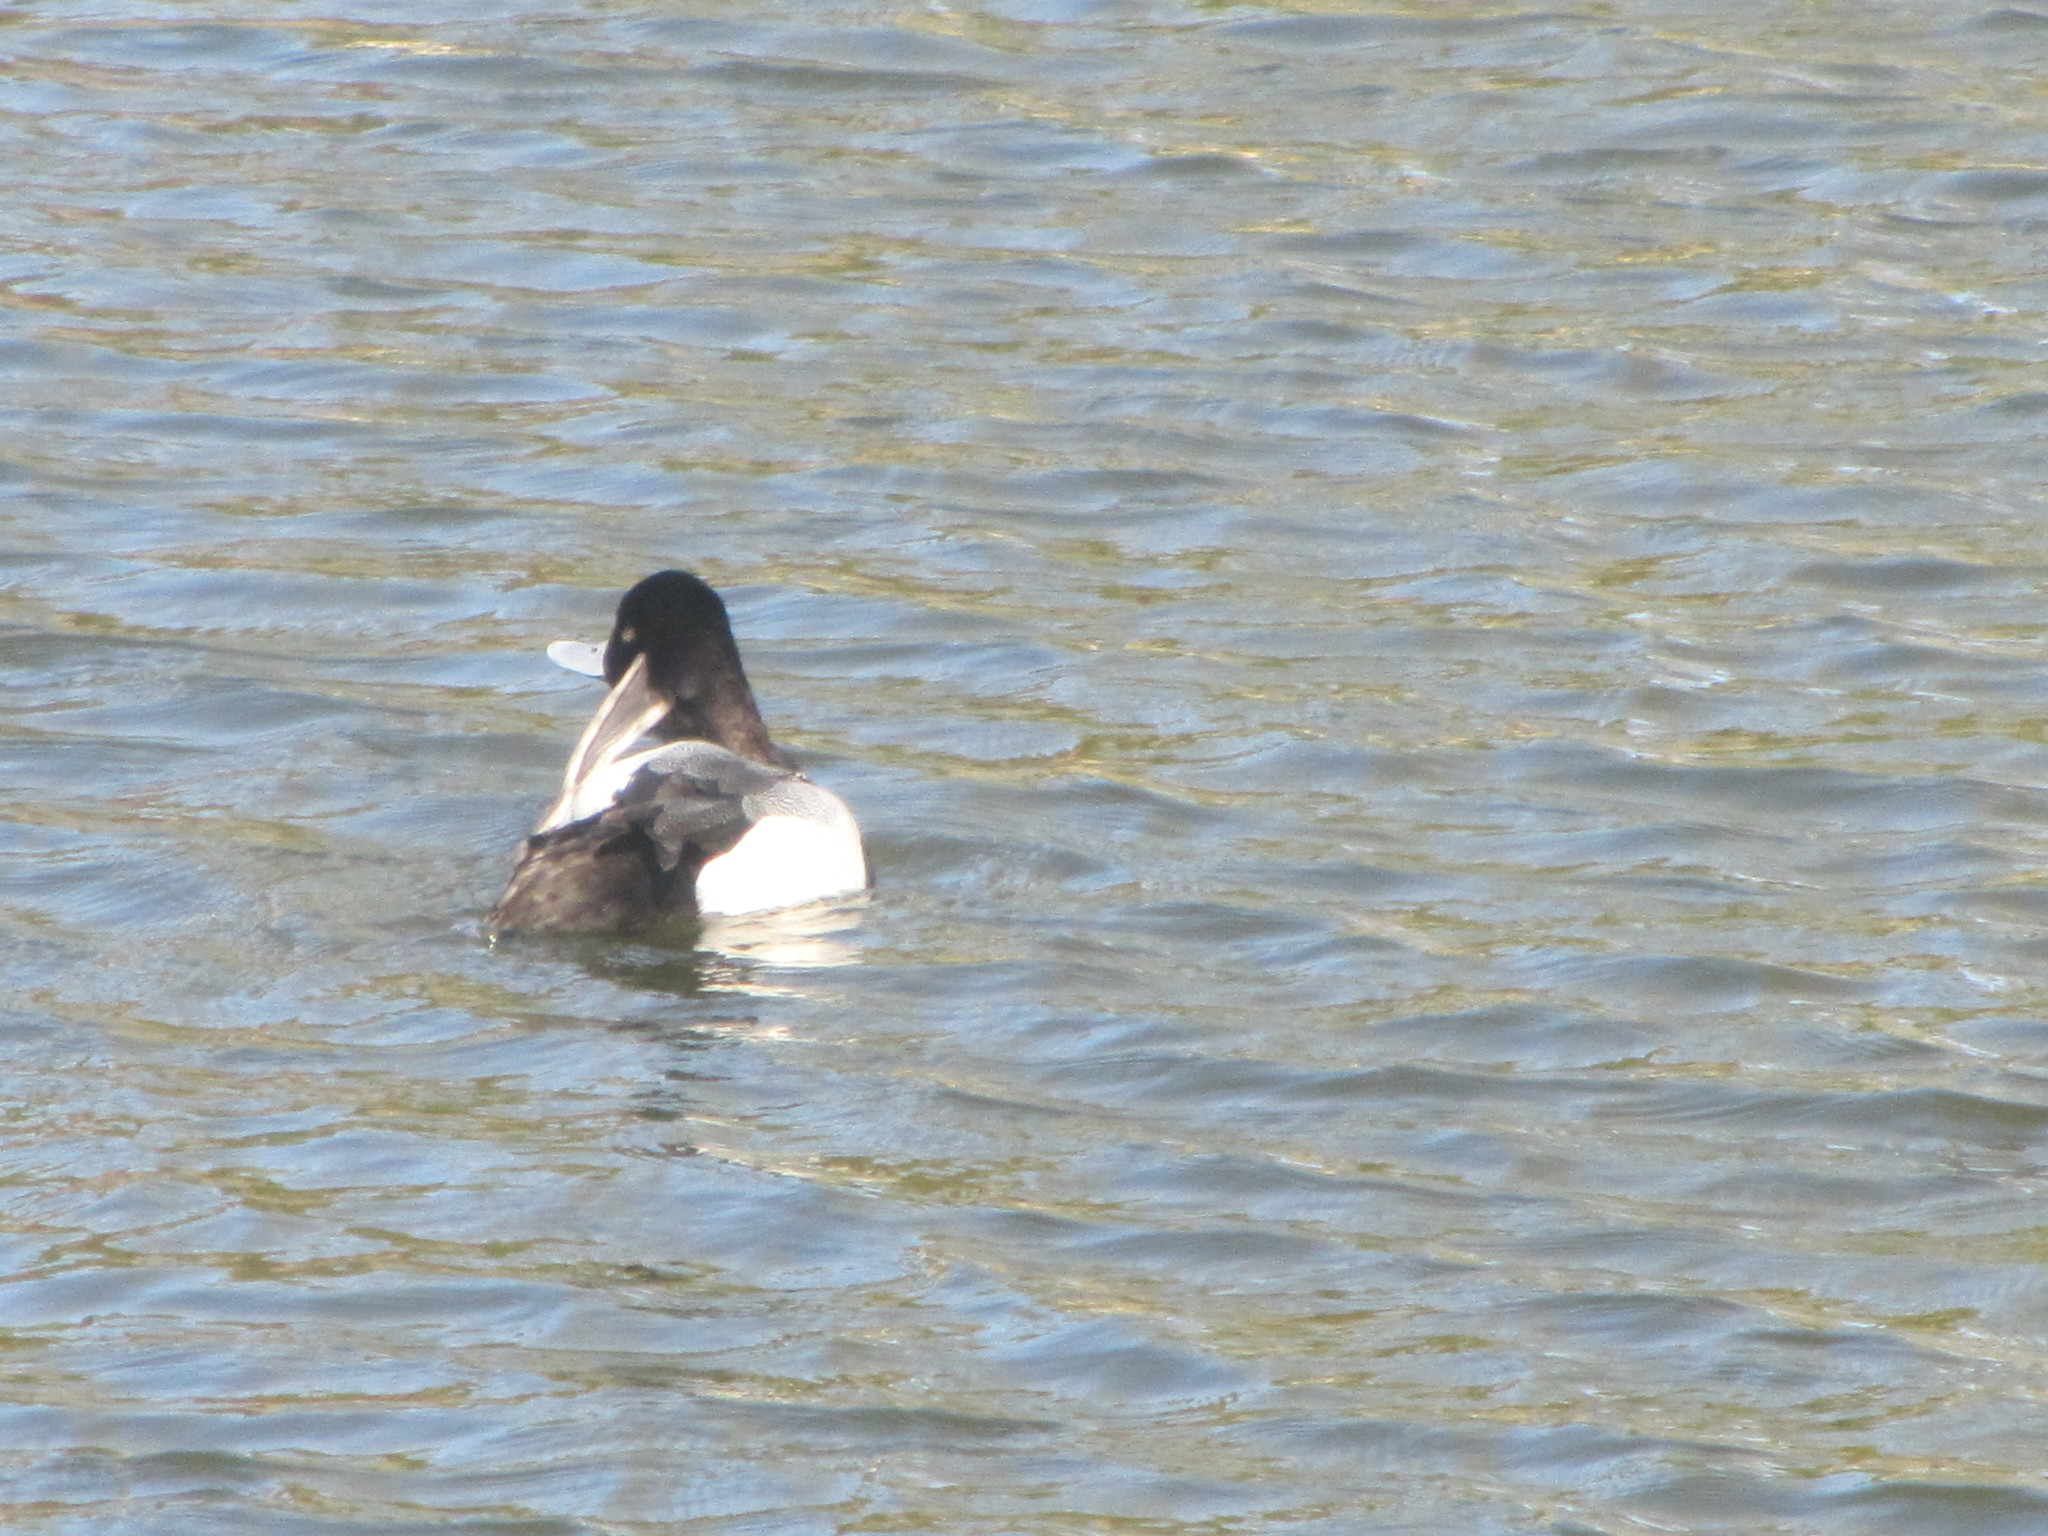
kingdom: Animalia
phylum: Chordata
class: Aves
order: Anseriformes
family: Anatidae
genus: Aythya
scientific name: Aythya affinis
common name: Lesser scaup
